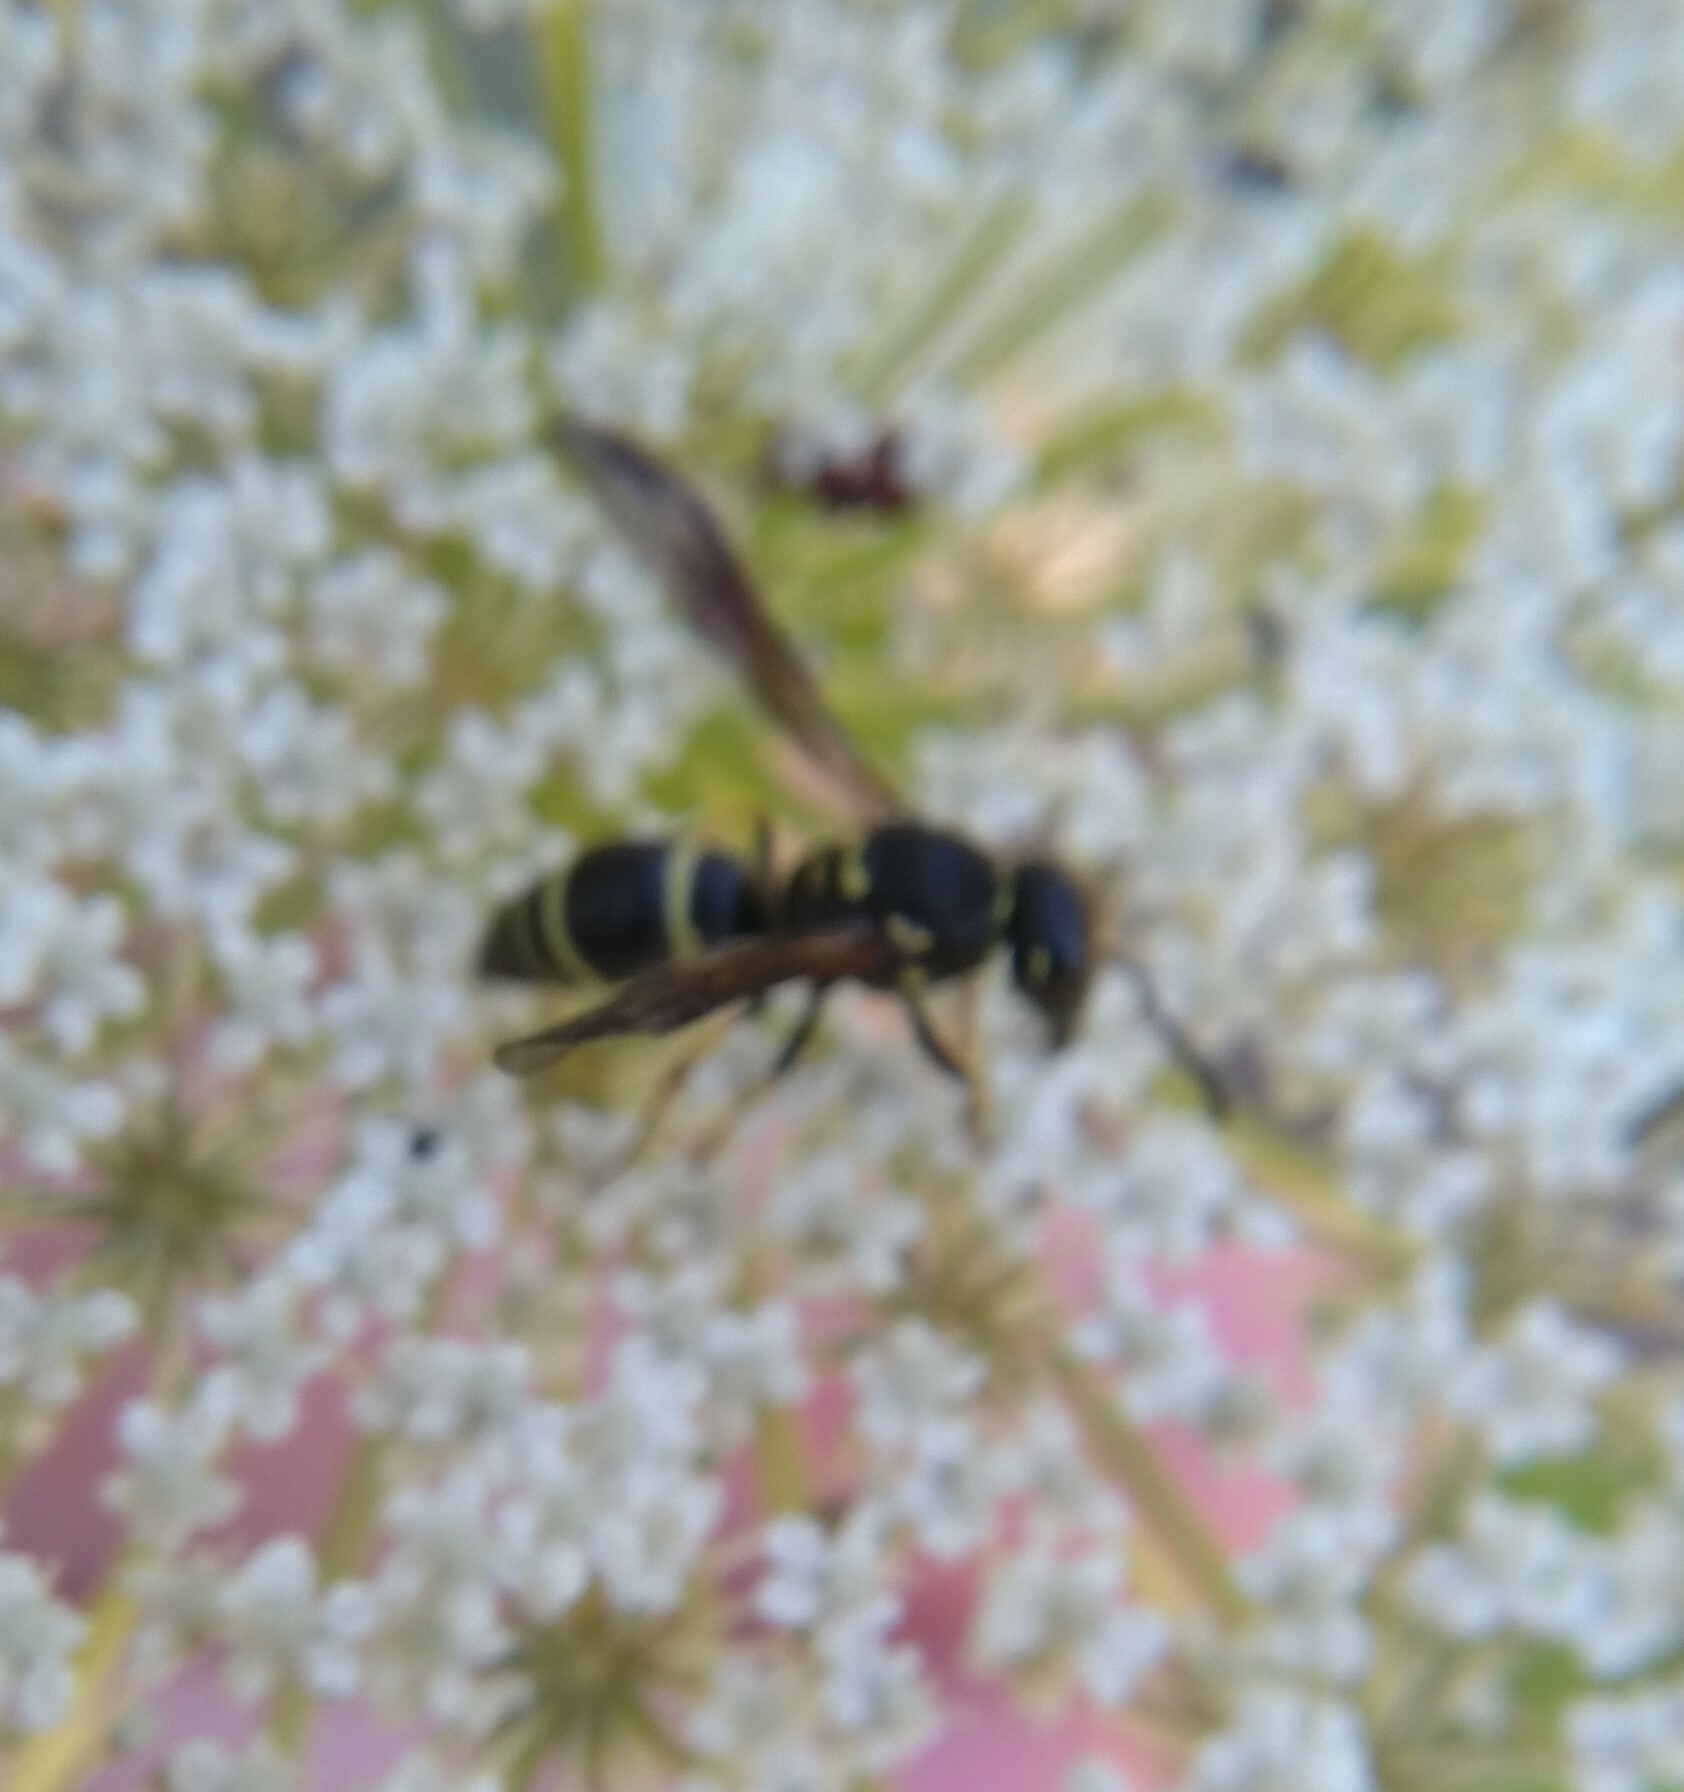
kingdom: Animalia
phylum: Arthropoda
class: Insecta
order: Hymenoptera
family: Vespidae
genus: Ancistrocerus
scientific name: Ancistrocerus
